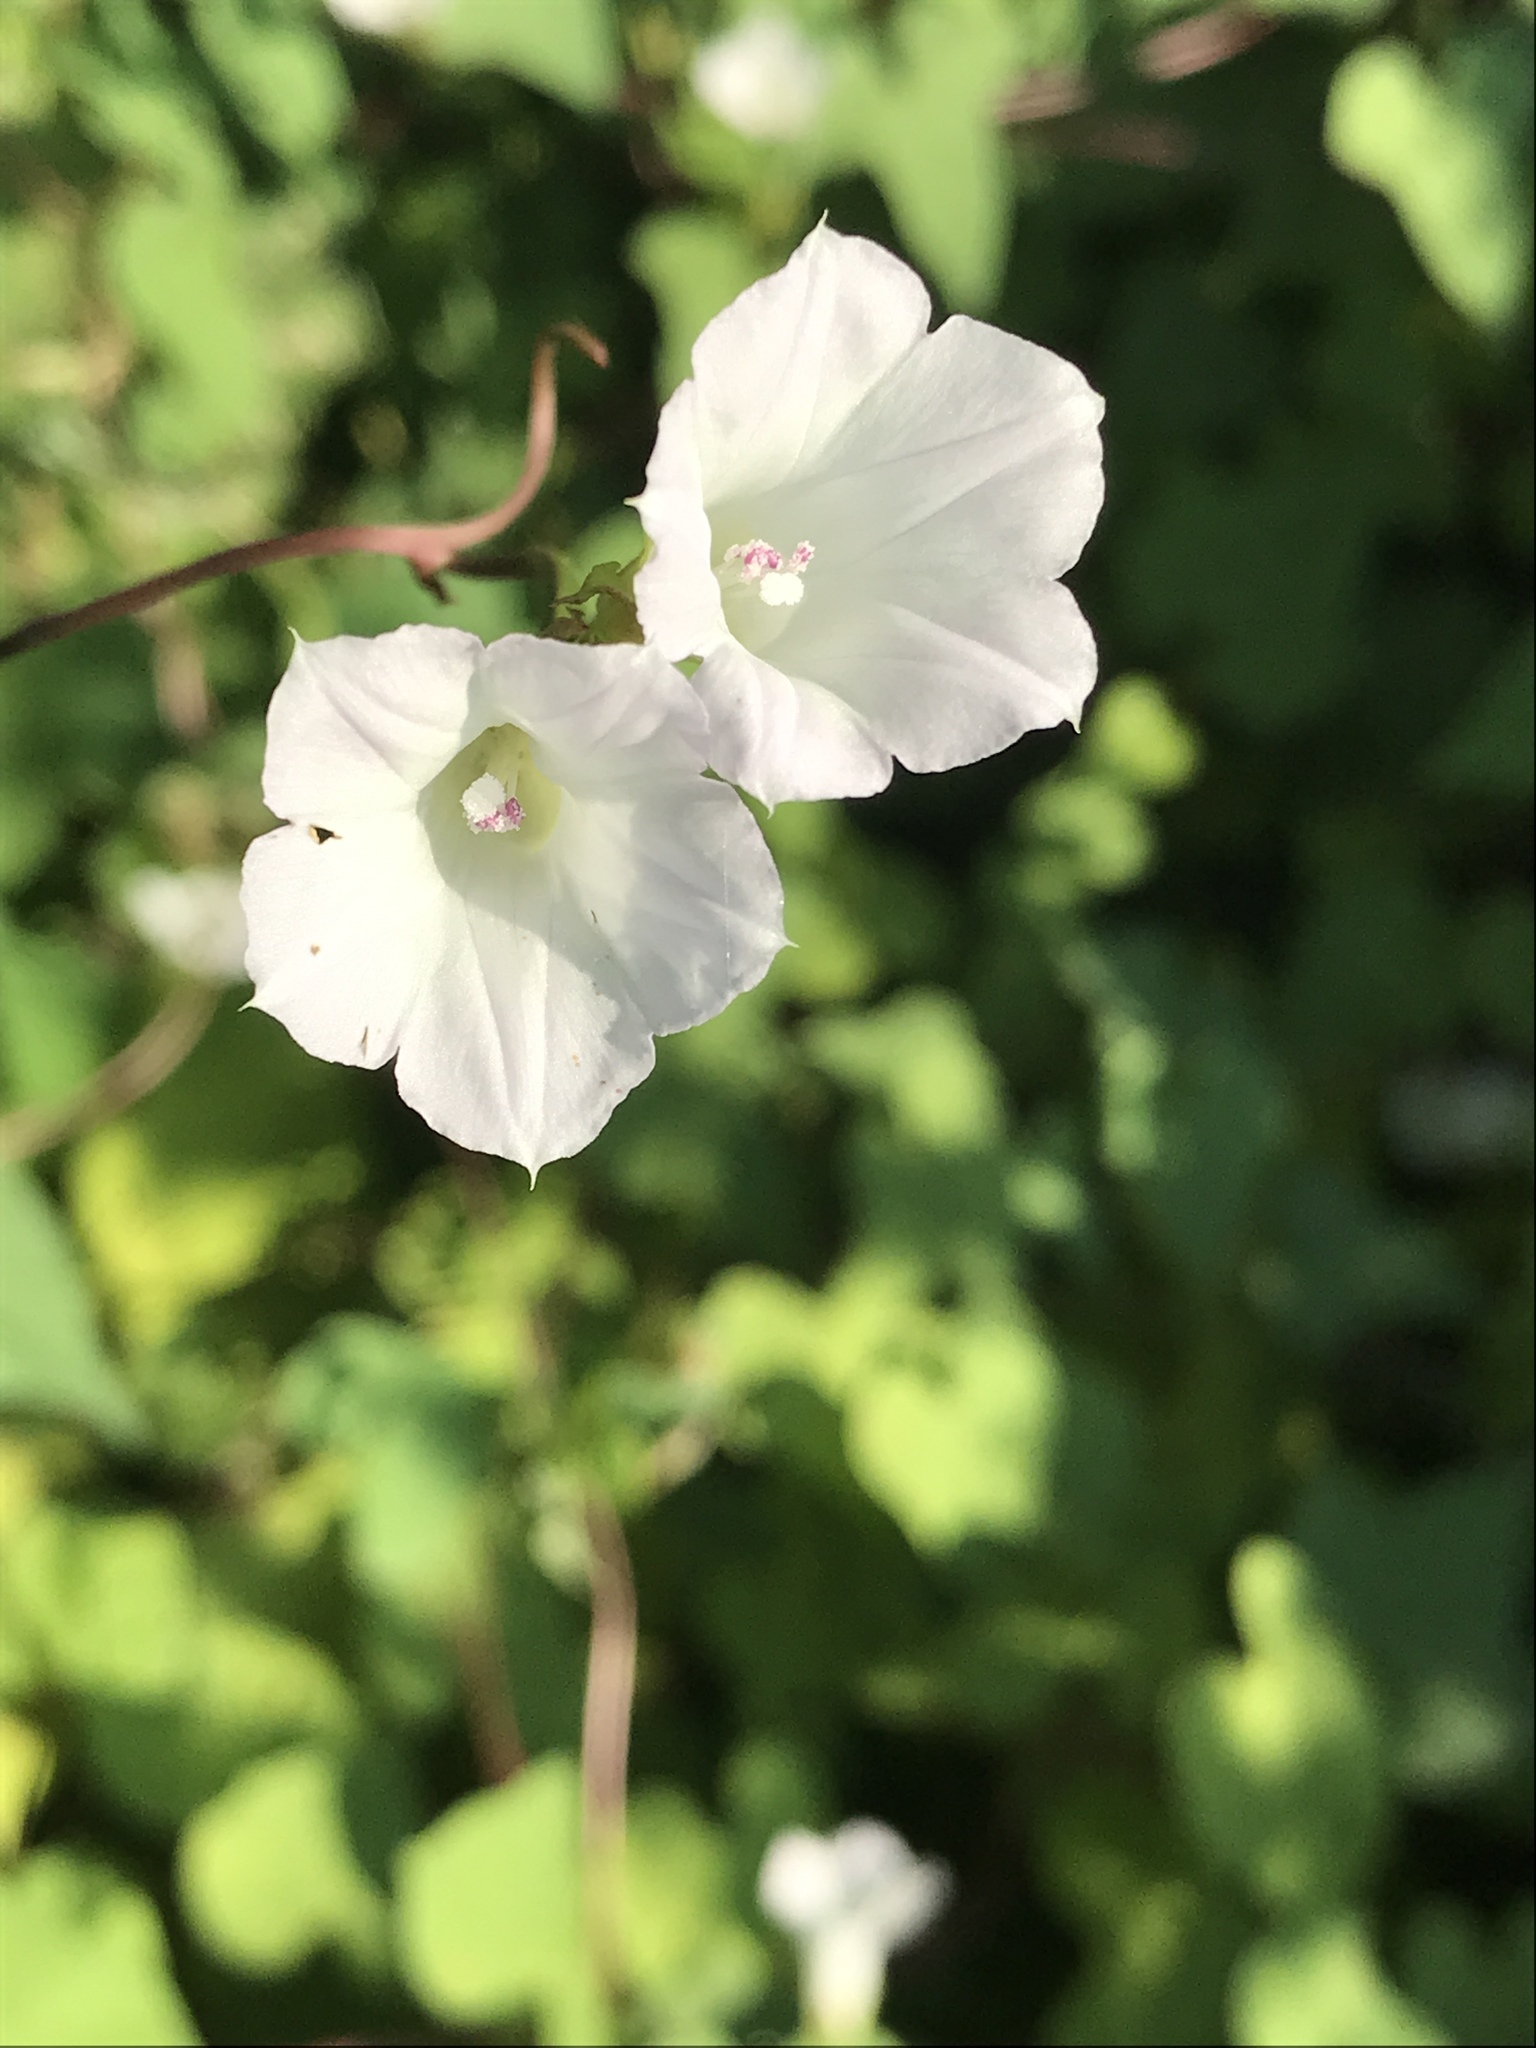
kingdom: Plantae
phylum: Tracheophyta
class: Magnoliopsida
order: Solanales
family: Convolvulaceae
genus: Ipomoea
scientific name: Ipomoea lacunosa
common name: White morning-glory
